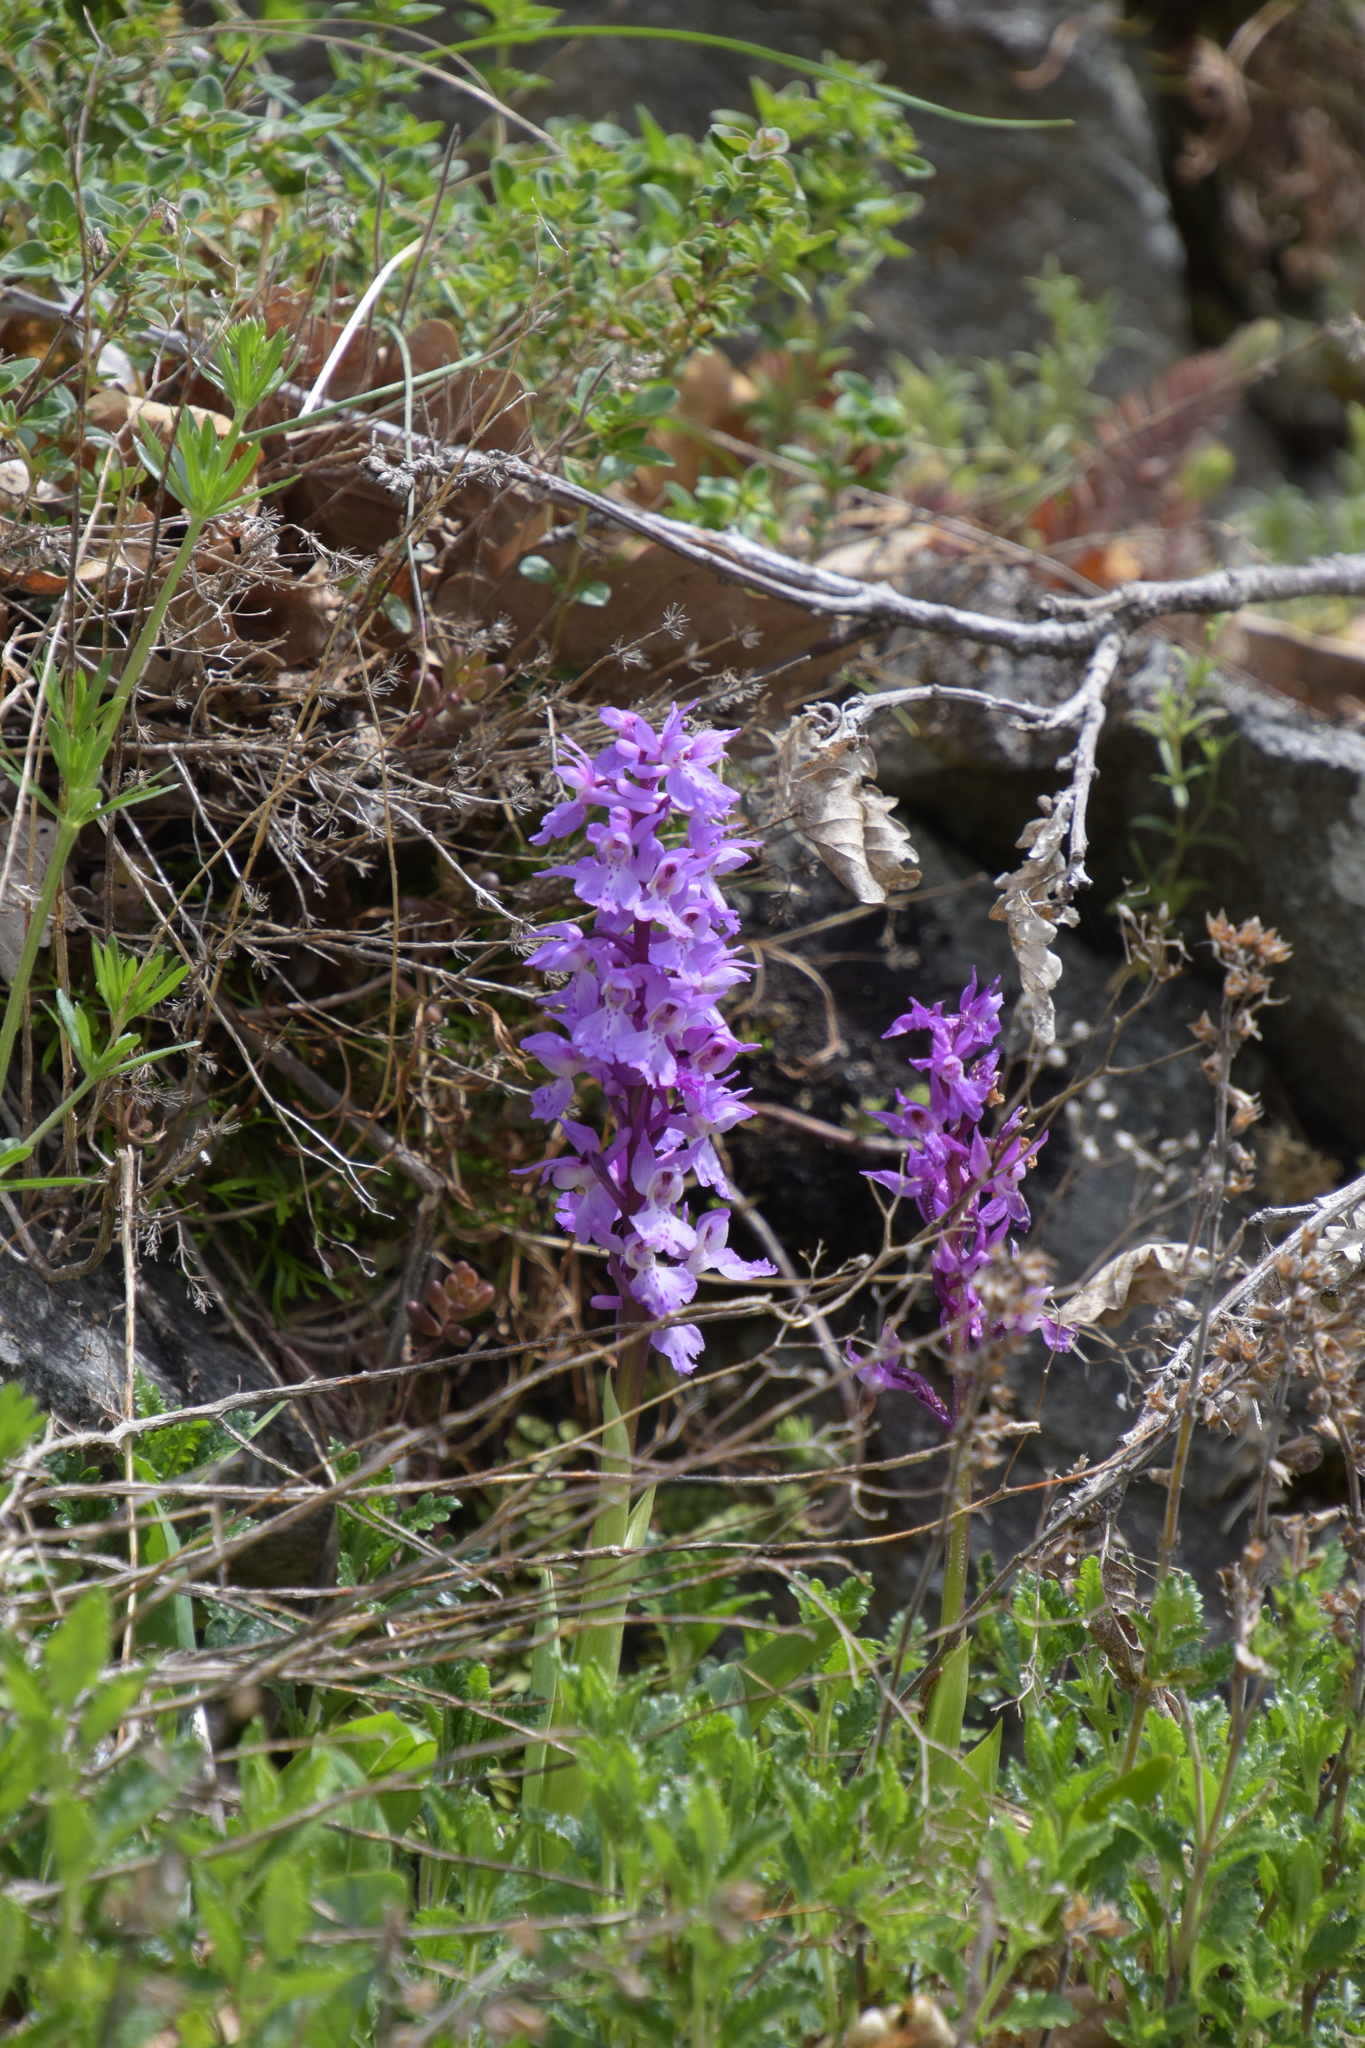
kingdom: Plantae
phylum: Tracheophyta
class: Liliopsida
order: Asparagales
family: Orchidaceae
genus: Orchis
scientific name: Orchis mascula
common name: Early-purple orchid
